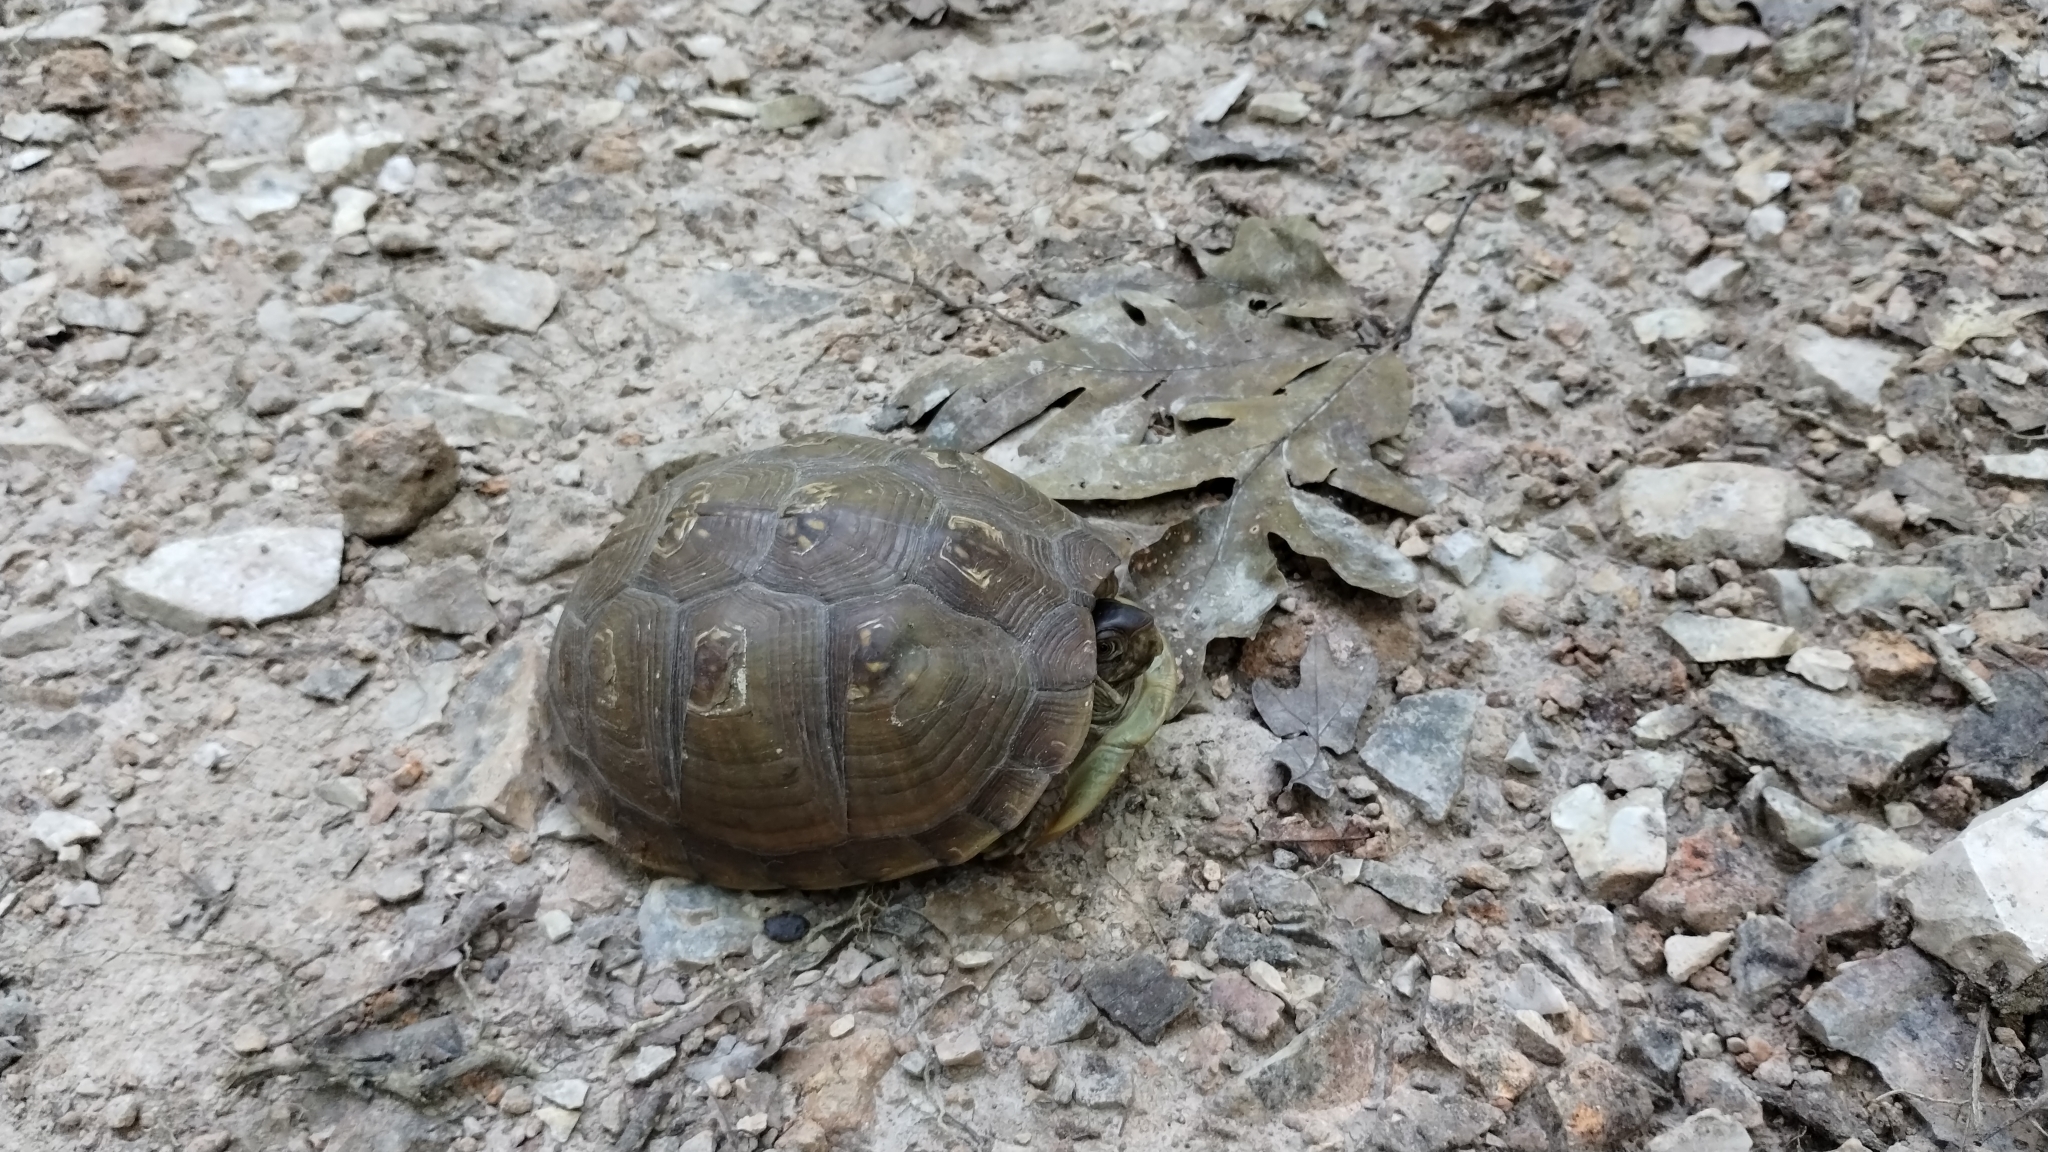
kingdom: Animalia
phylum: Chordata
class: Testudines
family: Emydidae
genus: Terrapene
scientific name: Terrapene carolina
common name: Common box turtle
